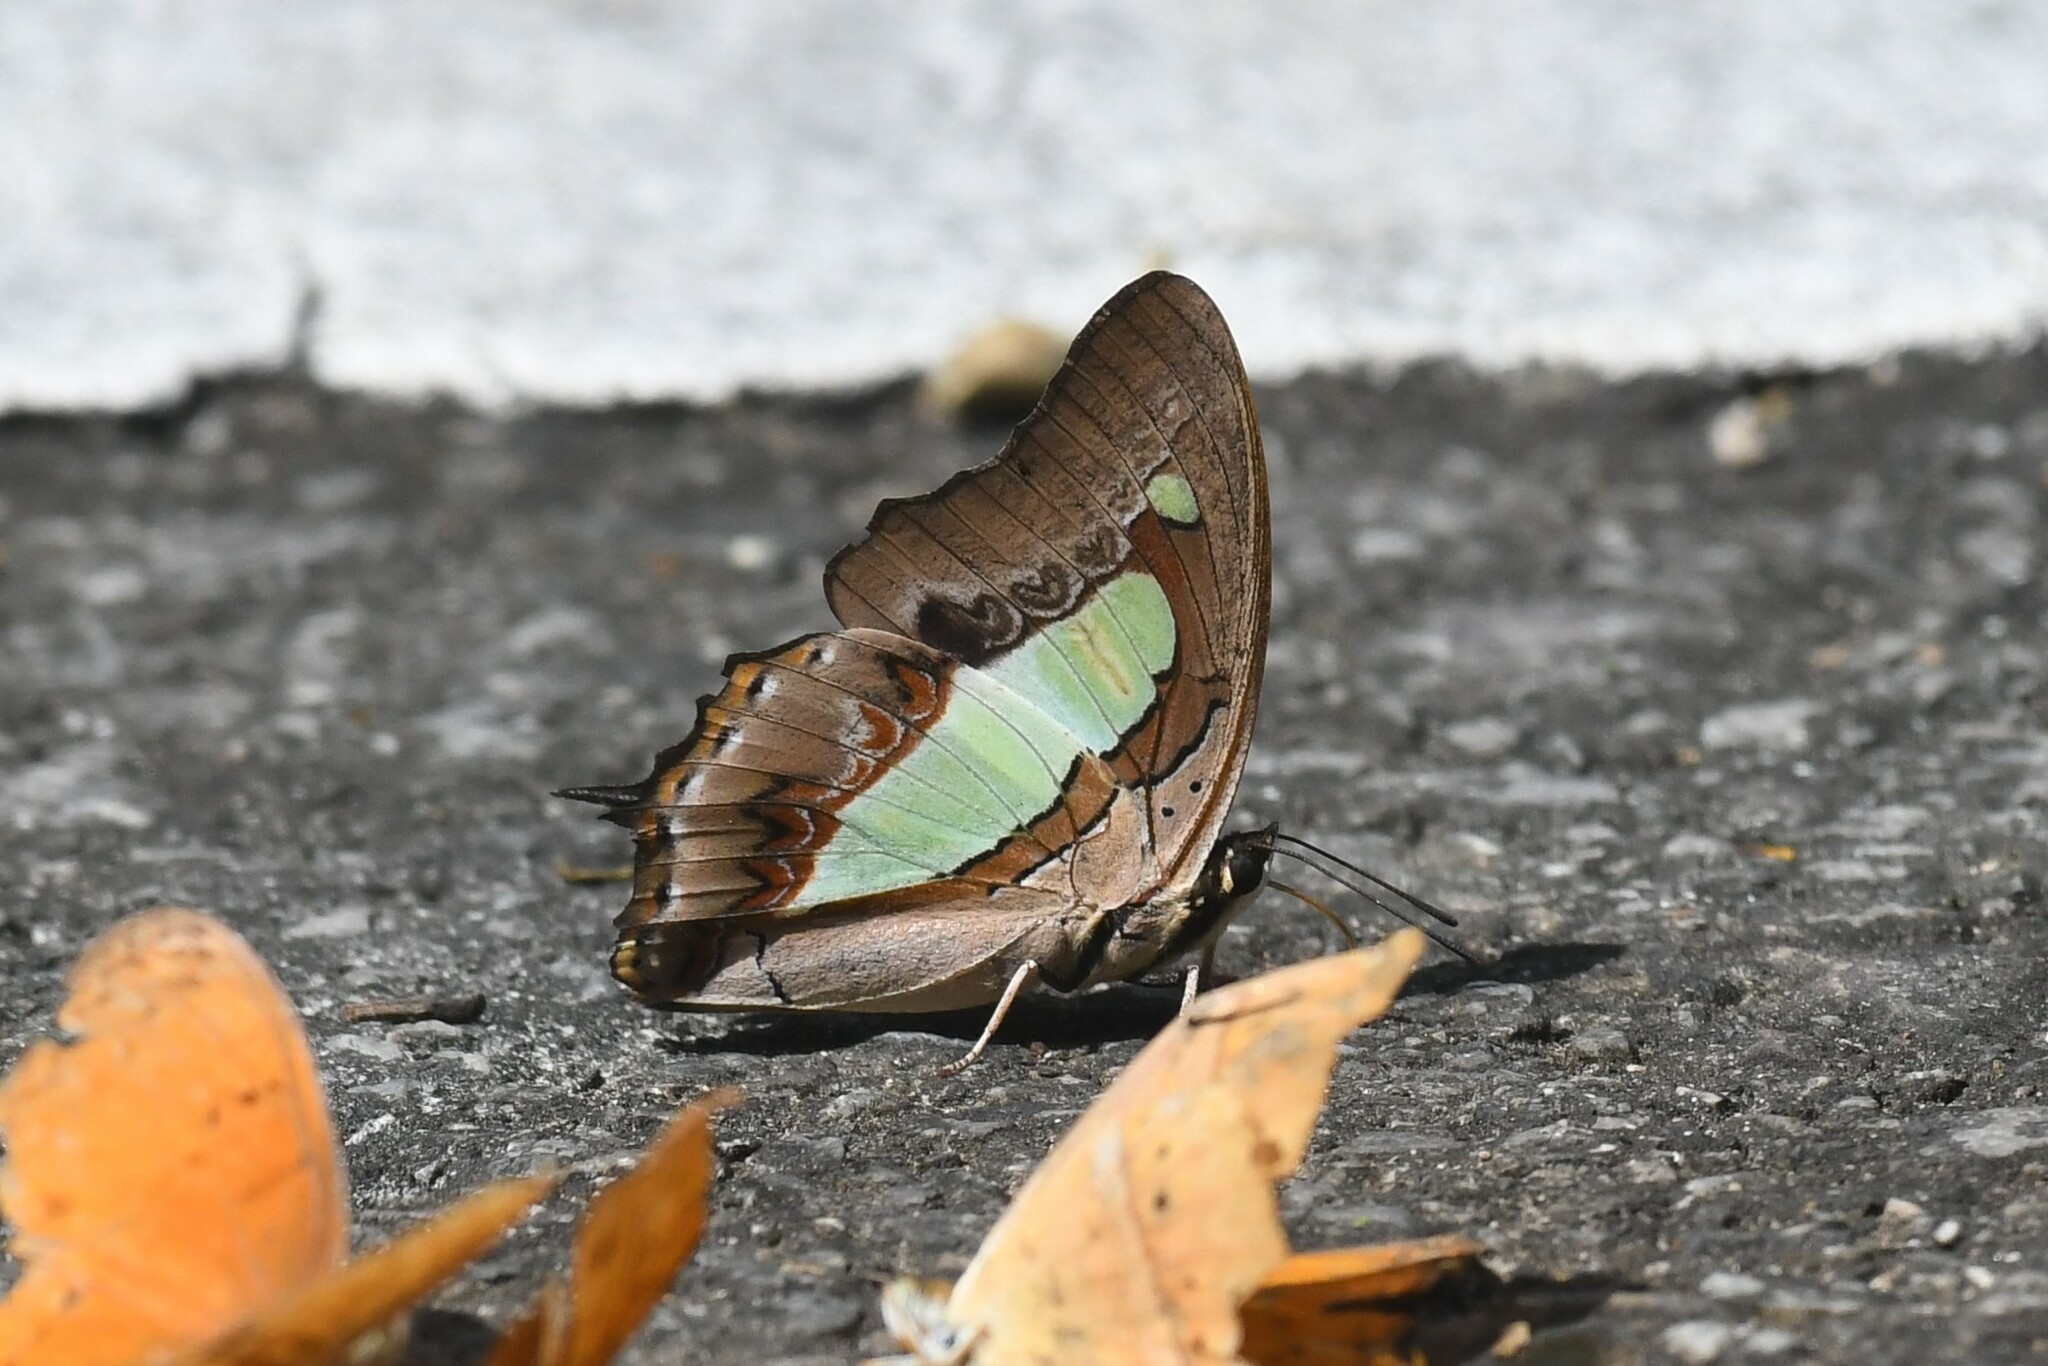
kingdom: Animalia
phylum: Arthropoda
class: Insecta
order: Lepidoptera
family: Nymphalidae
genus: Polyura
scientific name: Polyura athamas
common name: Common nawab
